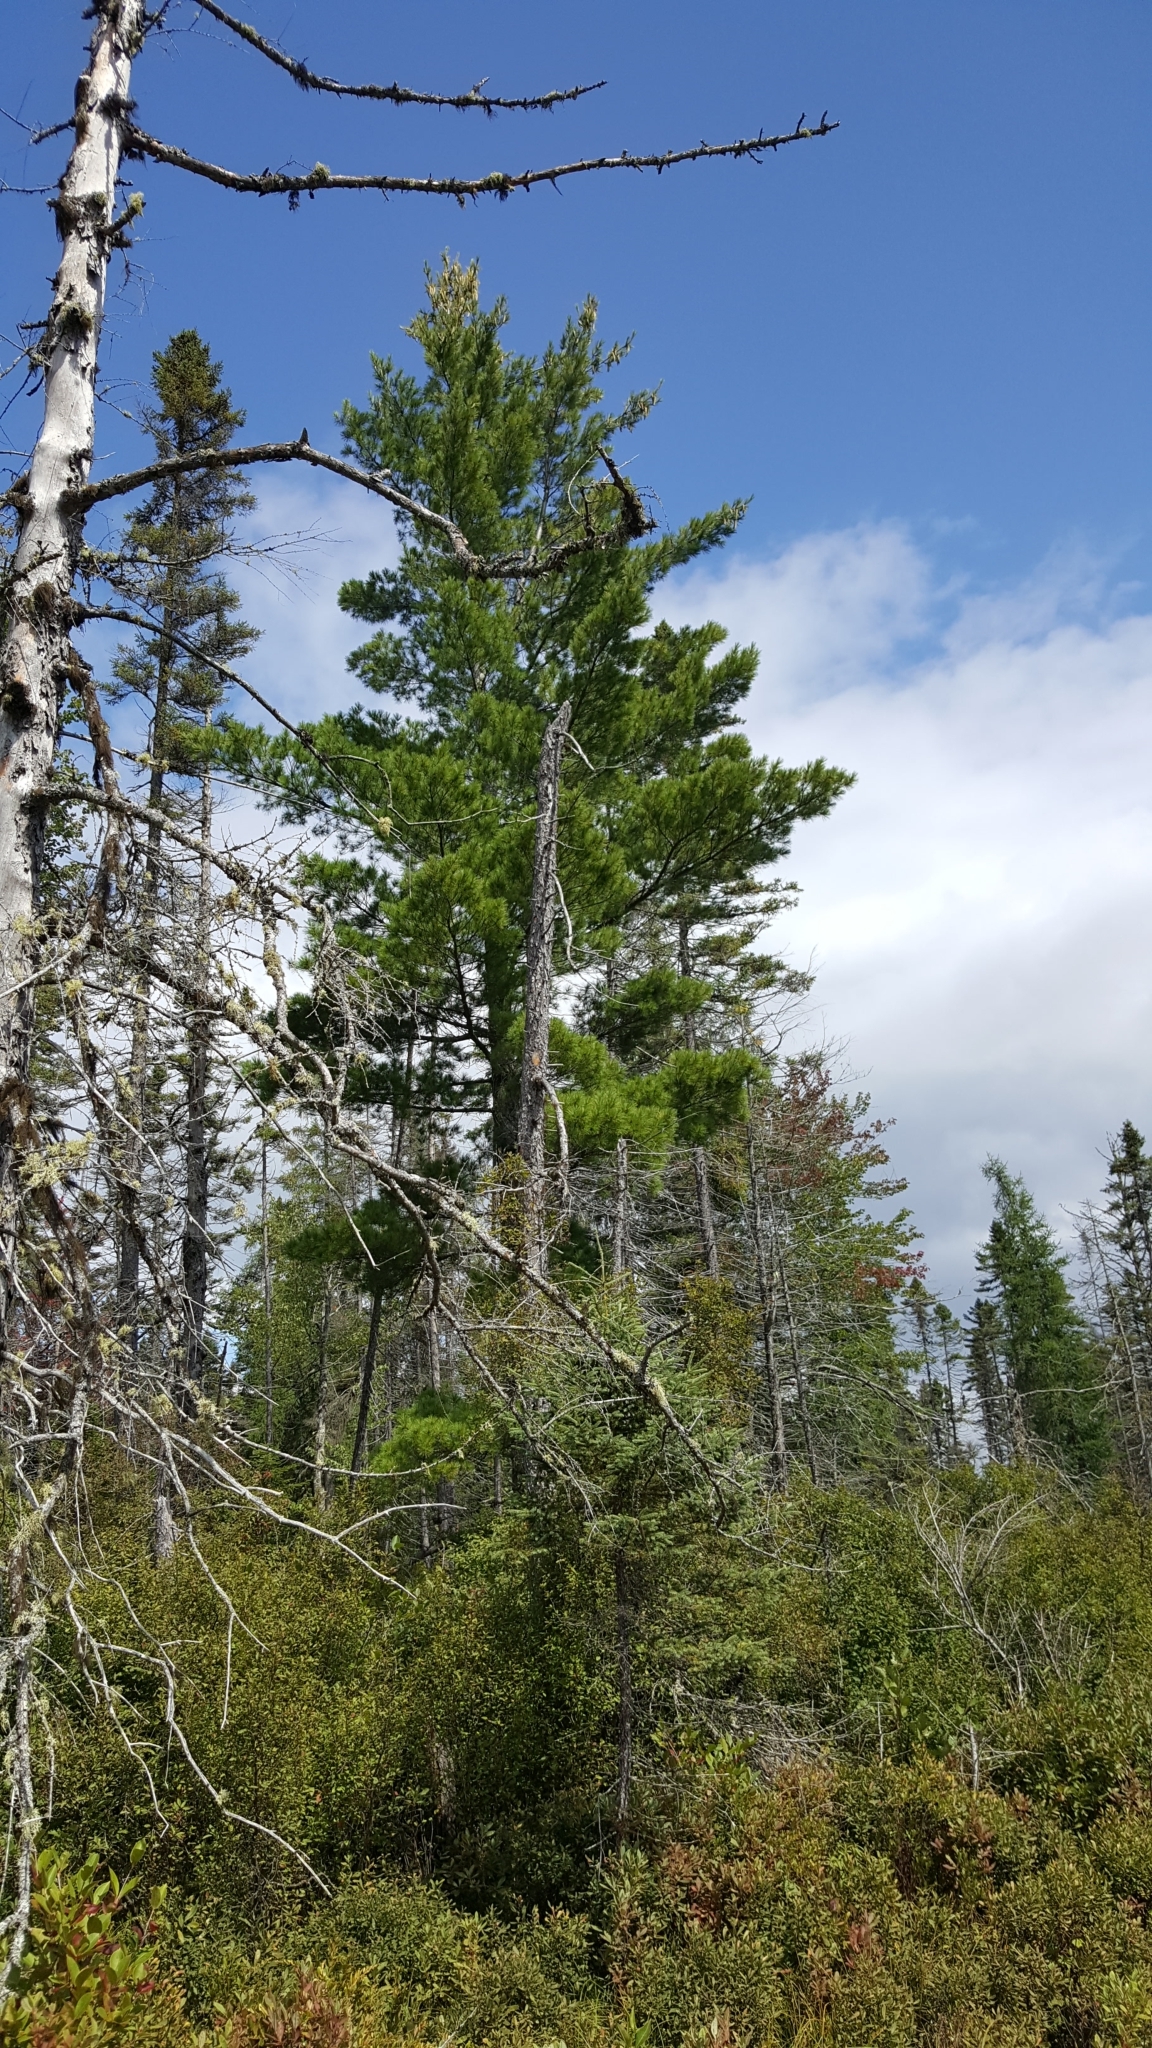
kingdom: Plantae
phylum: Tracheophyta
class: Pinopsida
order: Pinales
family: Pinaceae
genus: Pinus
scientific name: Pinus strobus
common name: Weymouth pine
